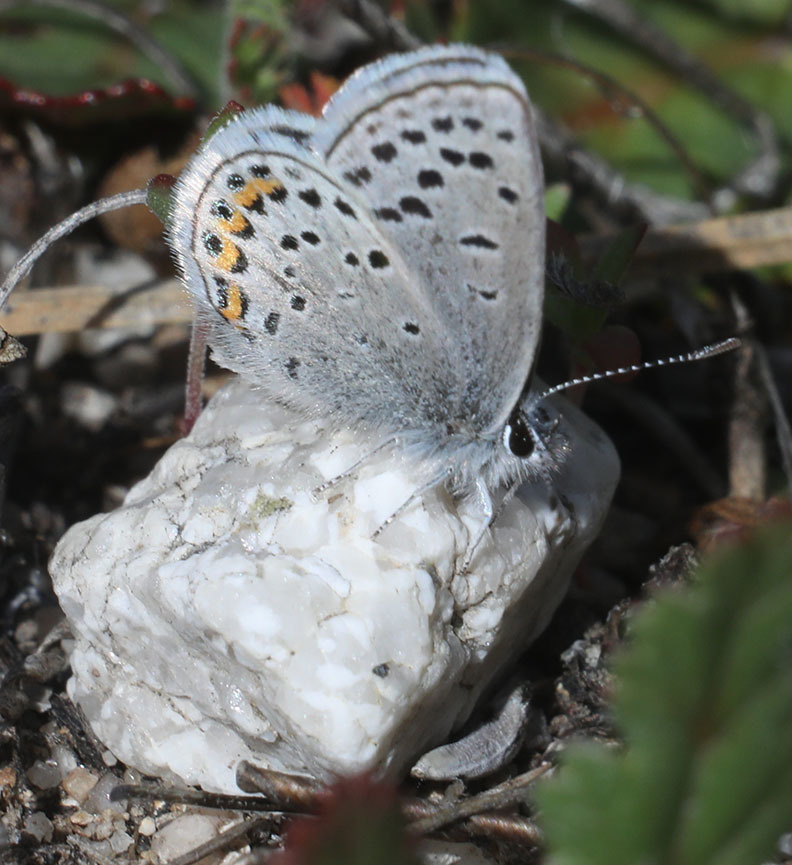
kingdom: Animalia
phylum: Arthropoda
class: Insecta
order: Lepidoptera
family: Lycaenidae
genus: Icaricia
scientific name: Icaricia acmon
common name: Acmon blue
